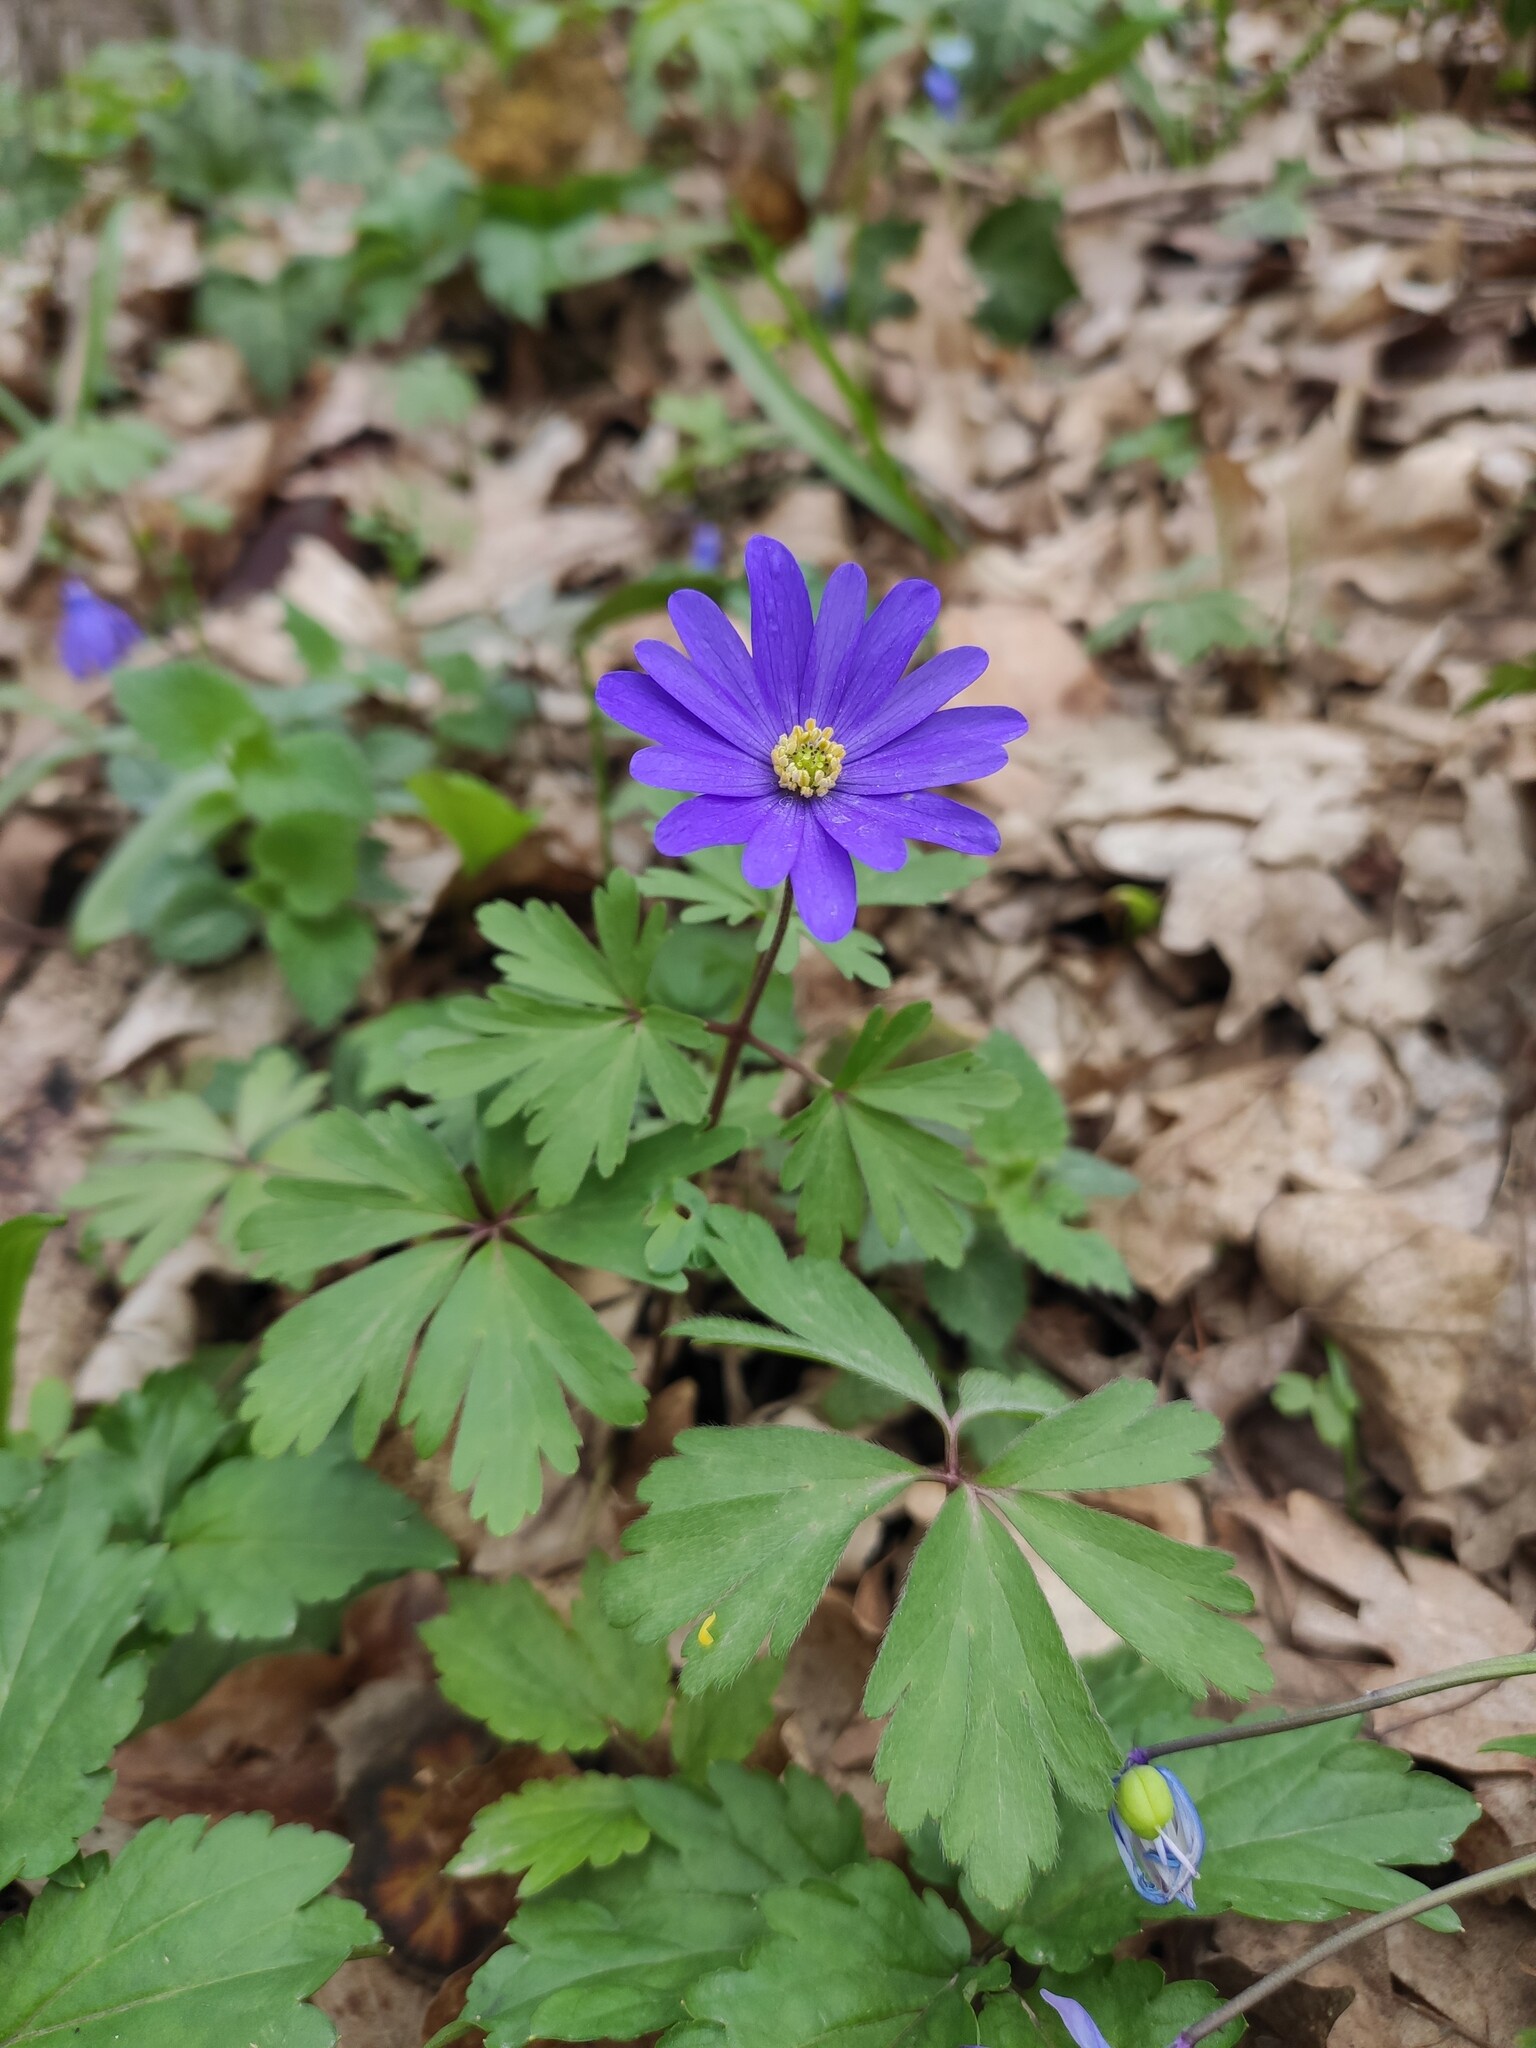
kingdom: Plantae
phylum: Tracheophyta
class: Magnoliopsida
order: Ranunculales
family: Ranunculaceae
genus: Anemone
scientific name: Anemone blanda
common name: Balkan anemone
